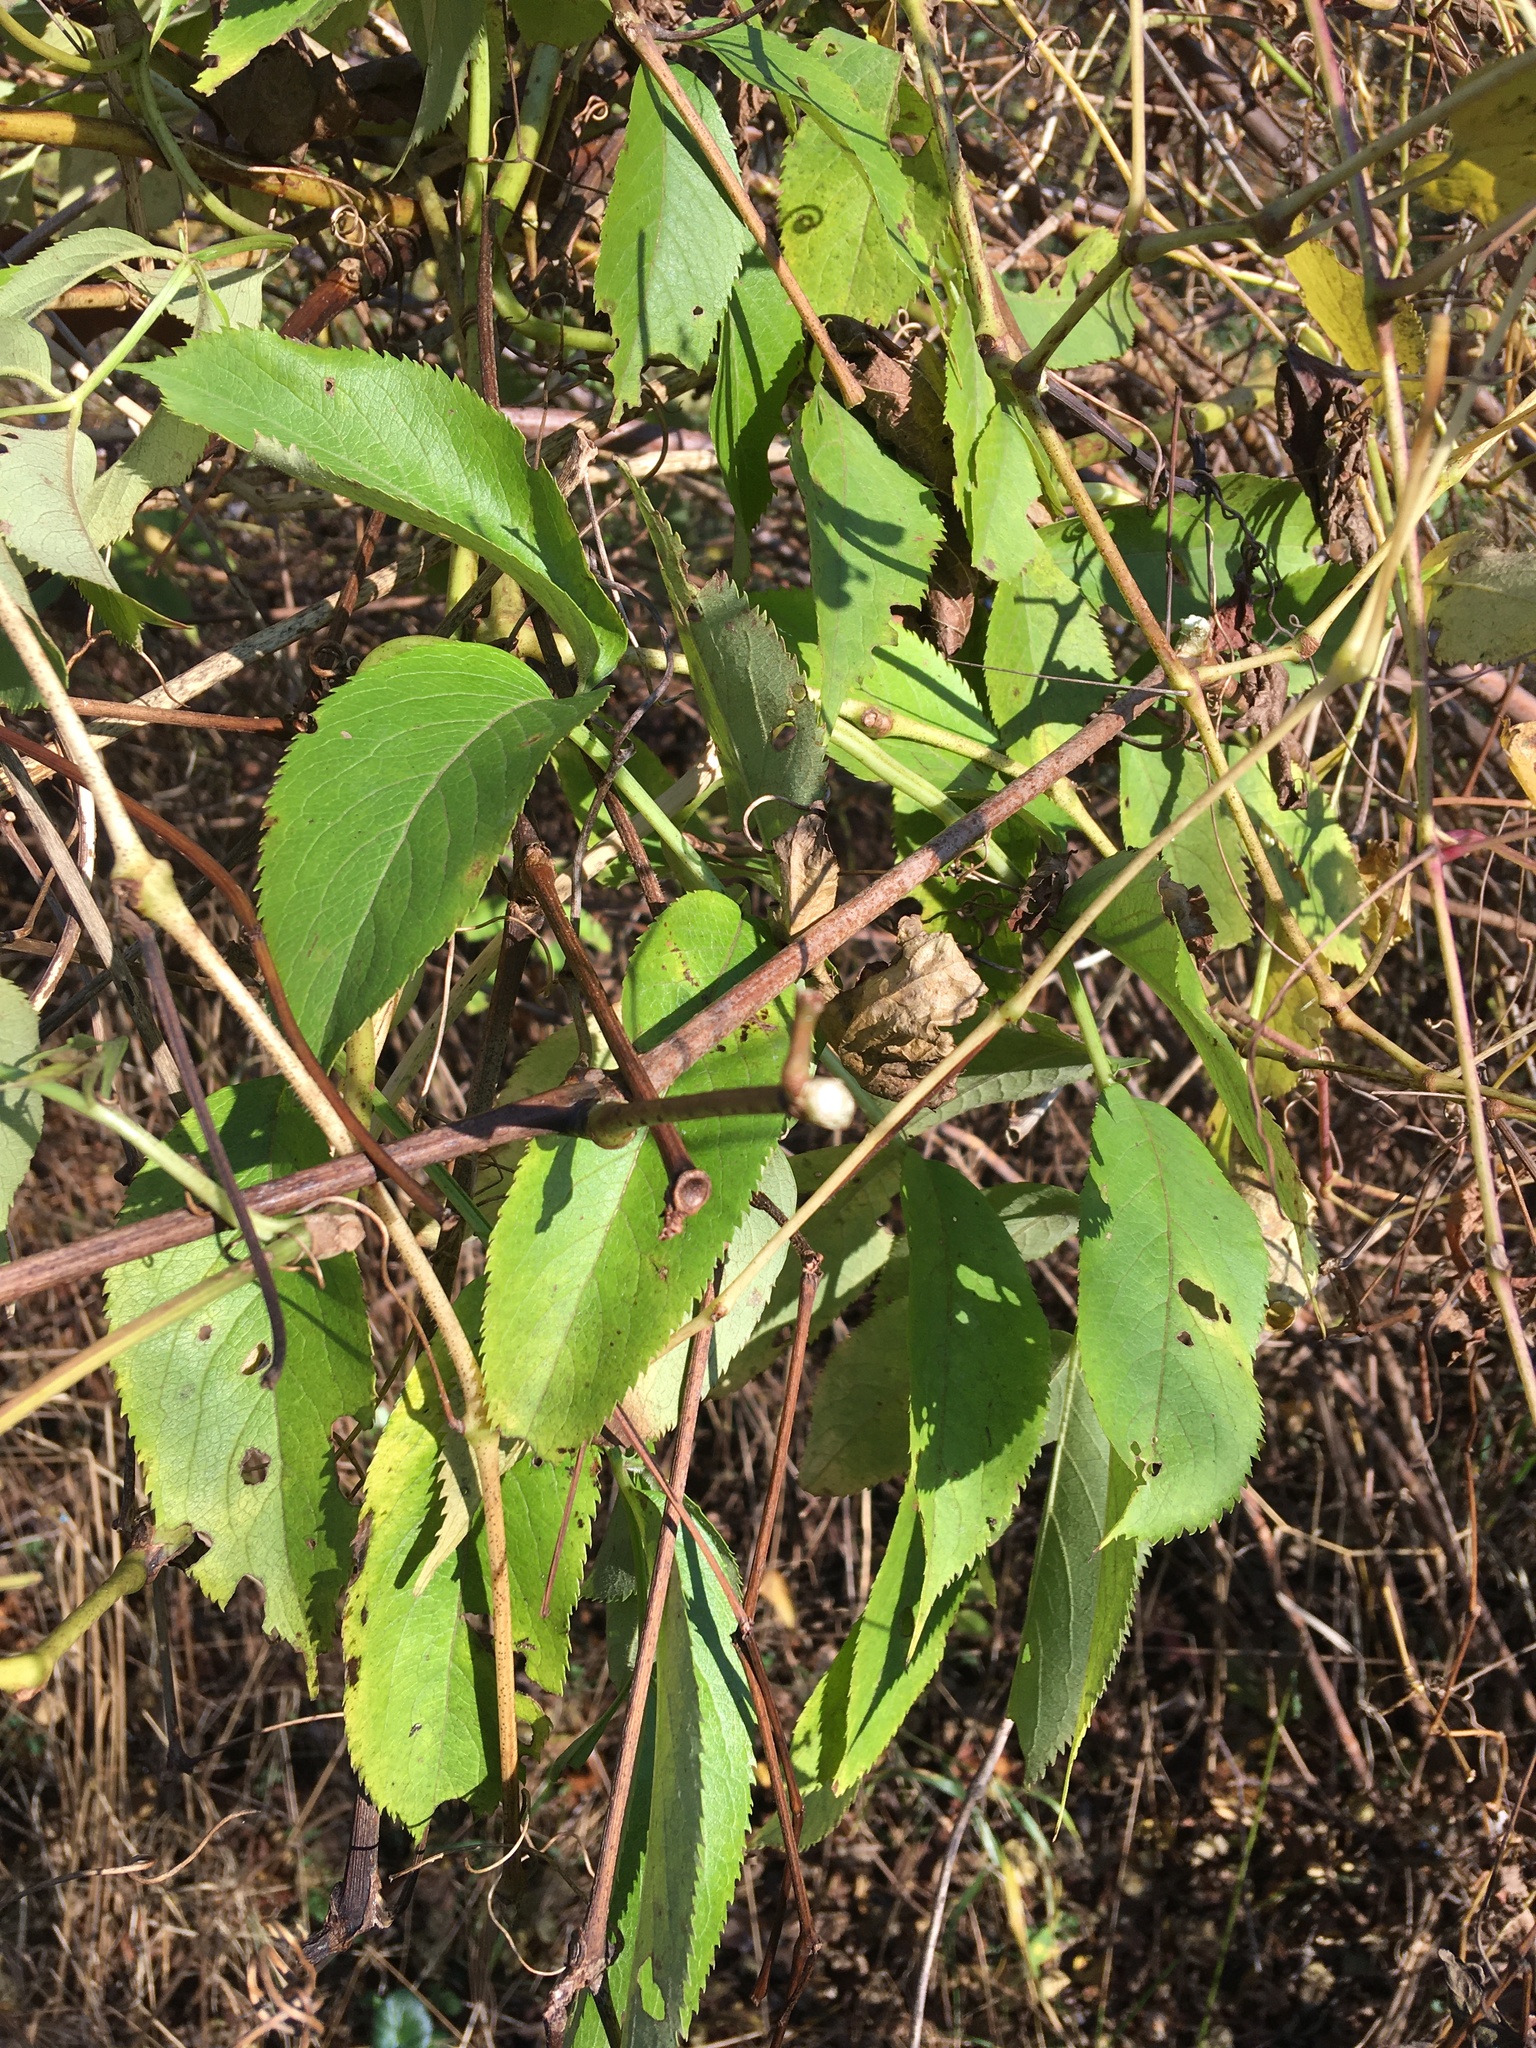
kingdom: Plantae
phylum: Tracheophyta
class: Magnoliopsida
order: Dipsacales
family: Viburnaceae
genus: Sambucus
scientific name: Sambucus canadensis
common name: American elder
